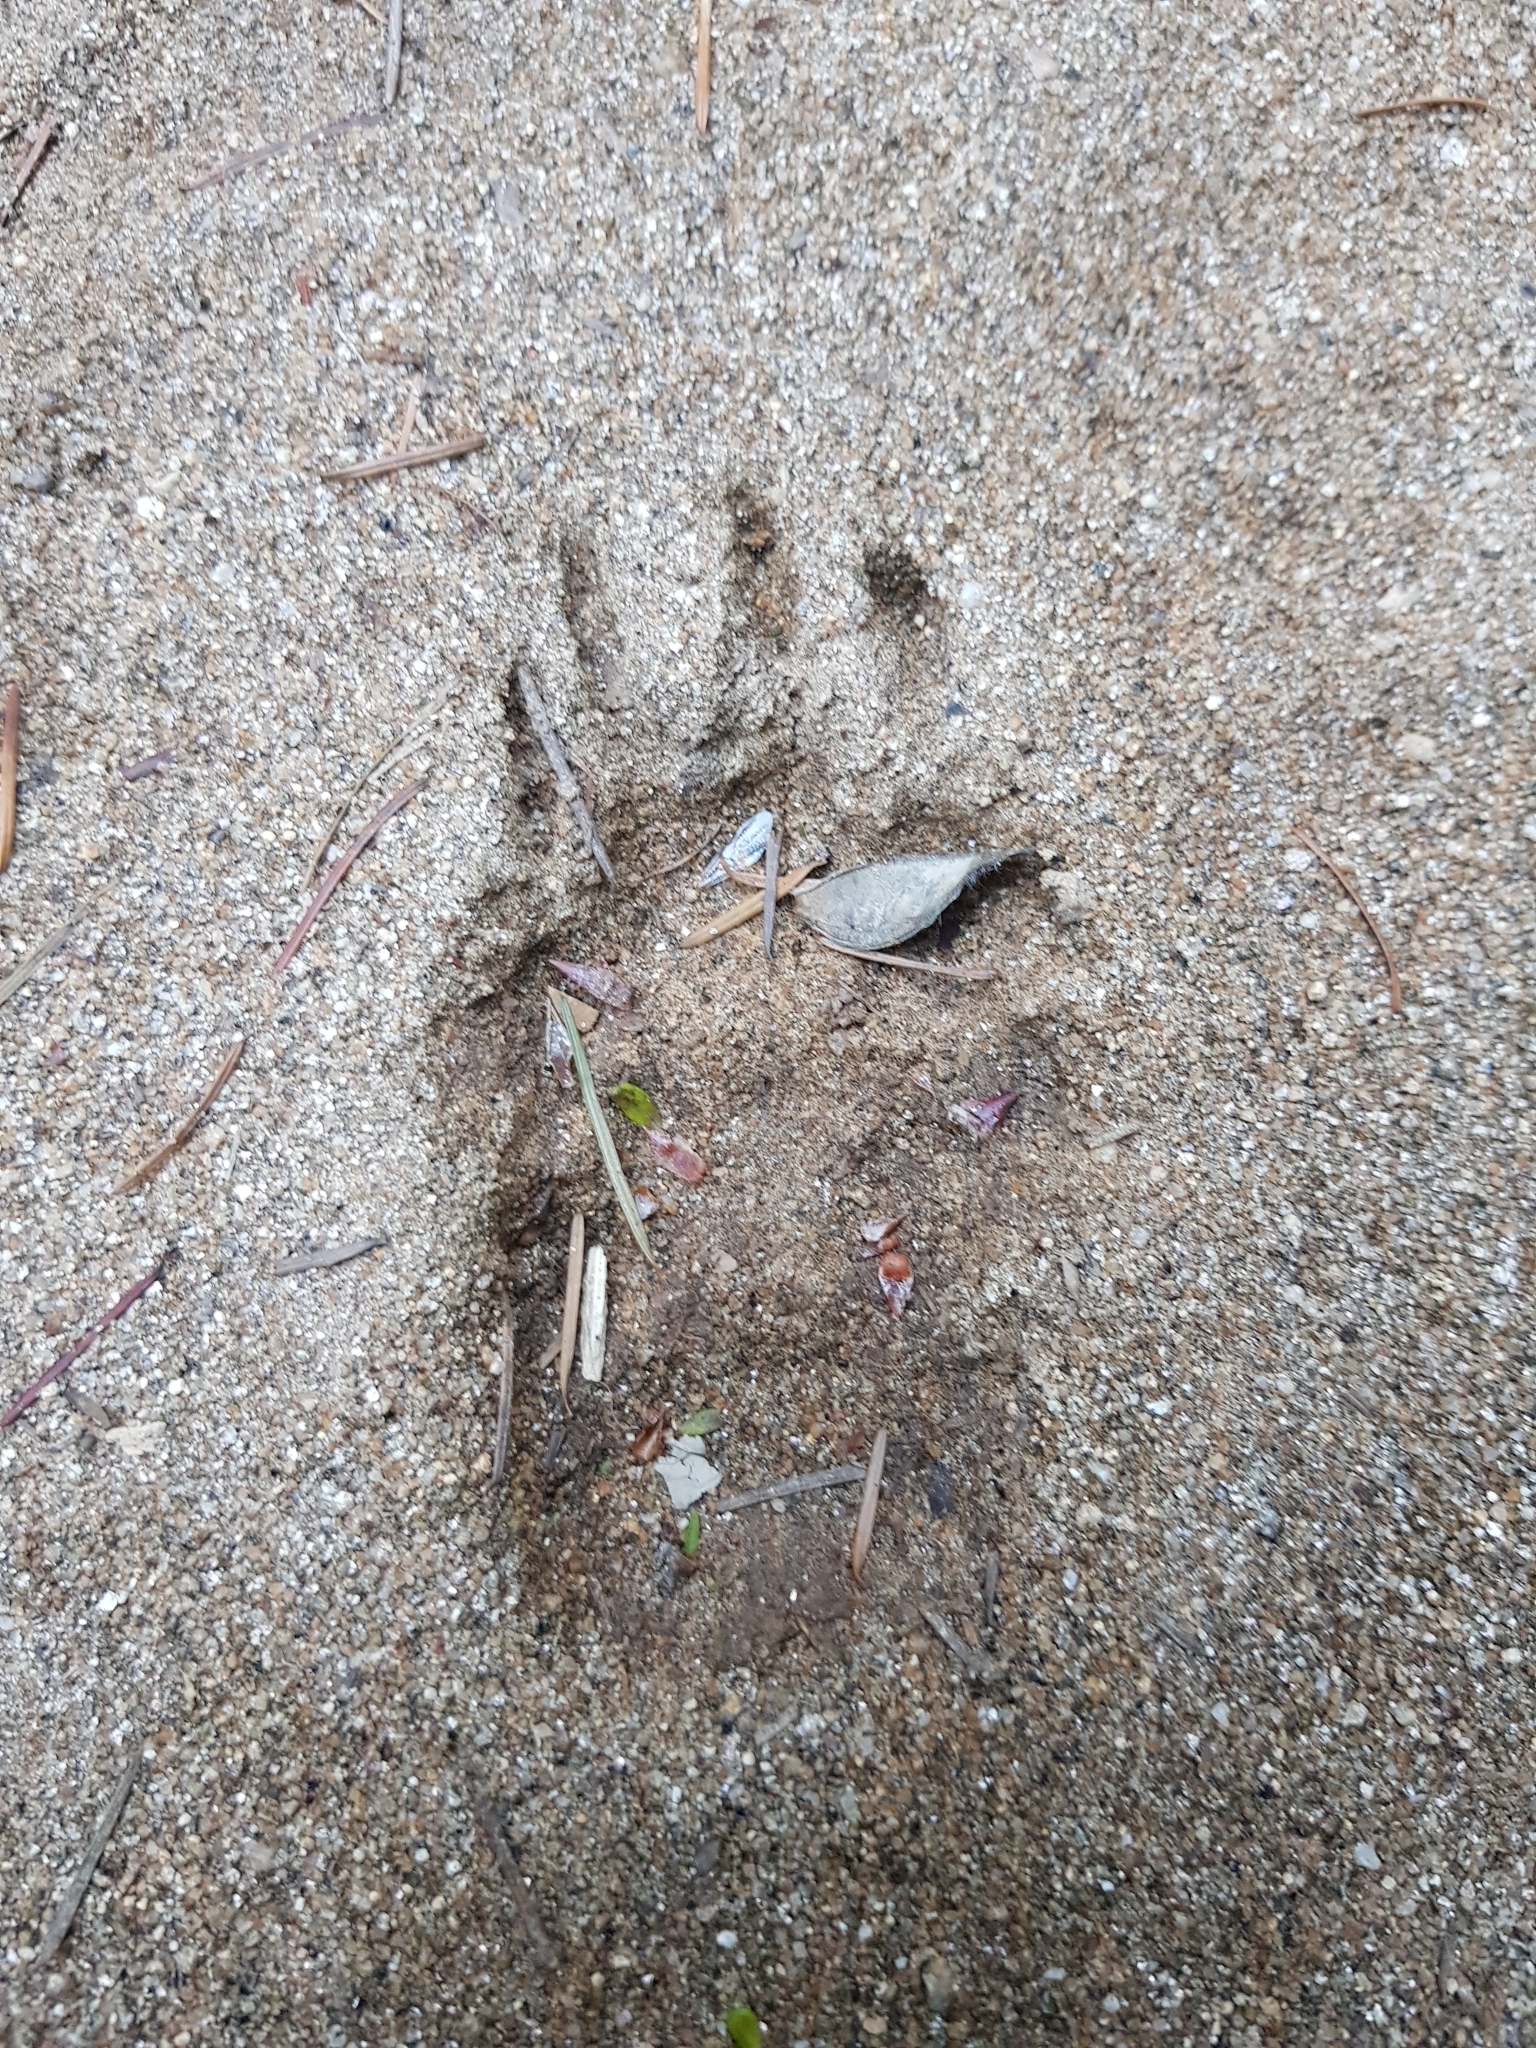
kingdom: Animalia
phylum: Chordata
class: Mammalia
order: Carnivora
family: Mustelidae
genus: Meles
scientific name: Meles meles
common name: Eurasian badger
